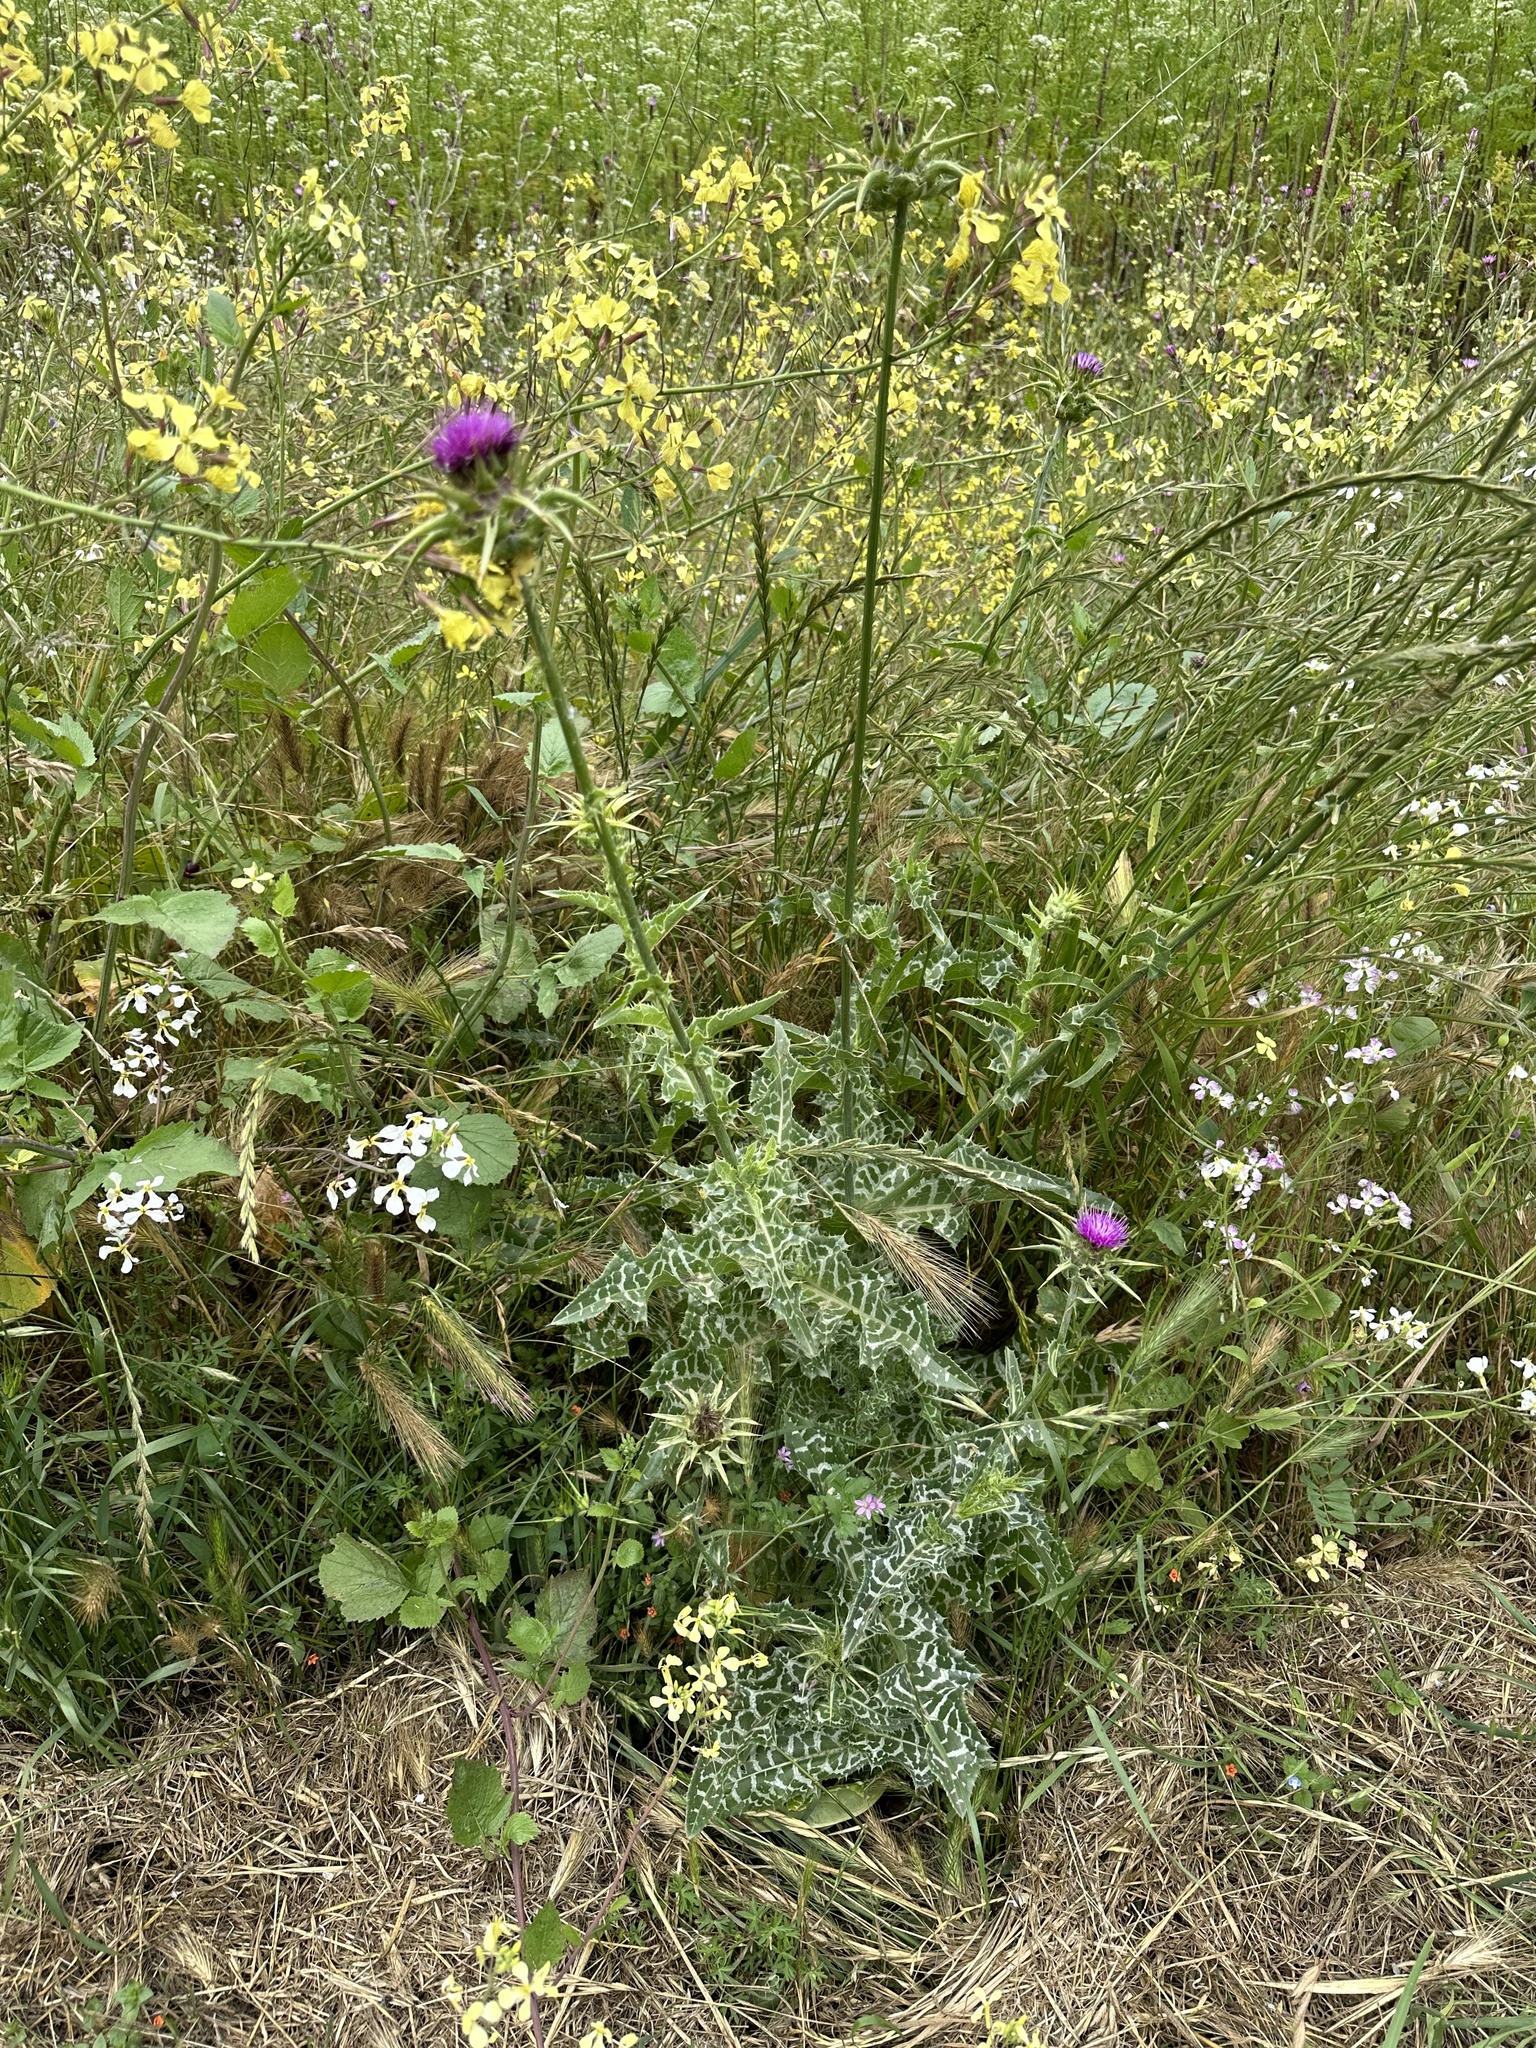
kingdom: Plantae
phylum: Tracheophyta
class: Magnoliopsida
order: Asterales
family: Asteraceae
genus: Silybum
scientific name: Silybum marianum
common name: Milk thistle
